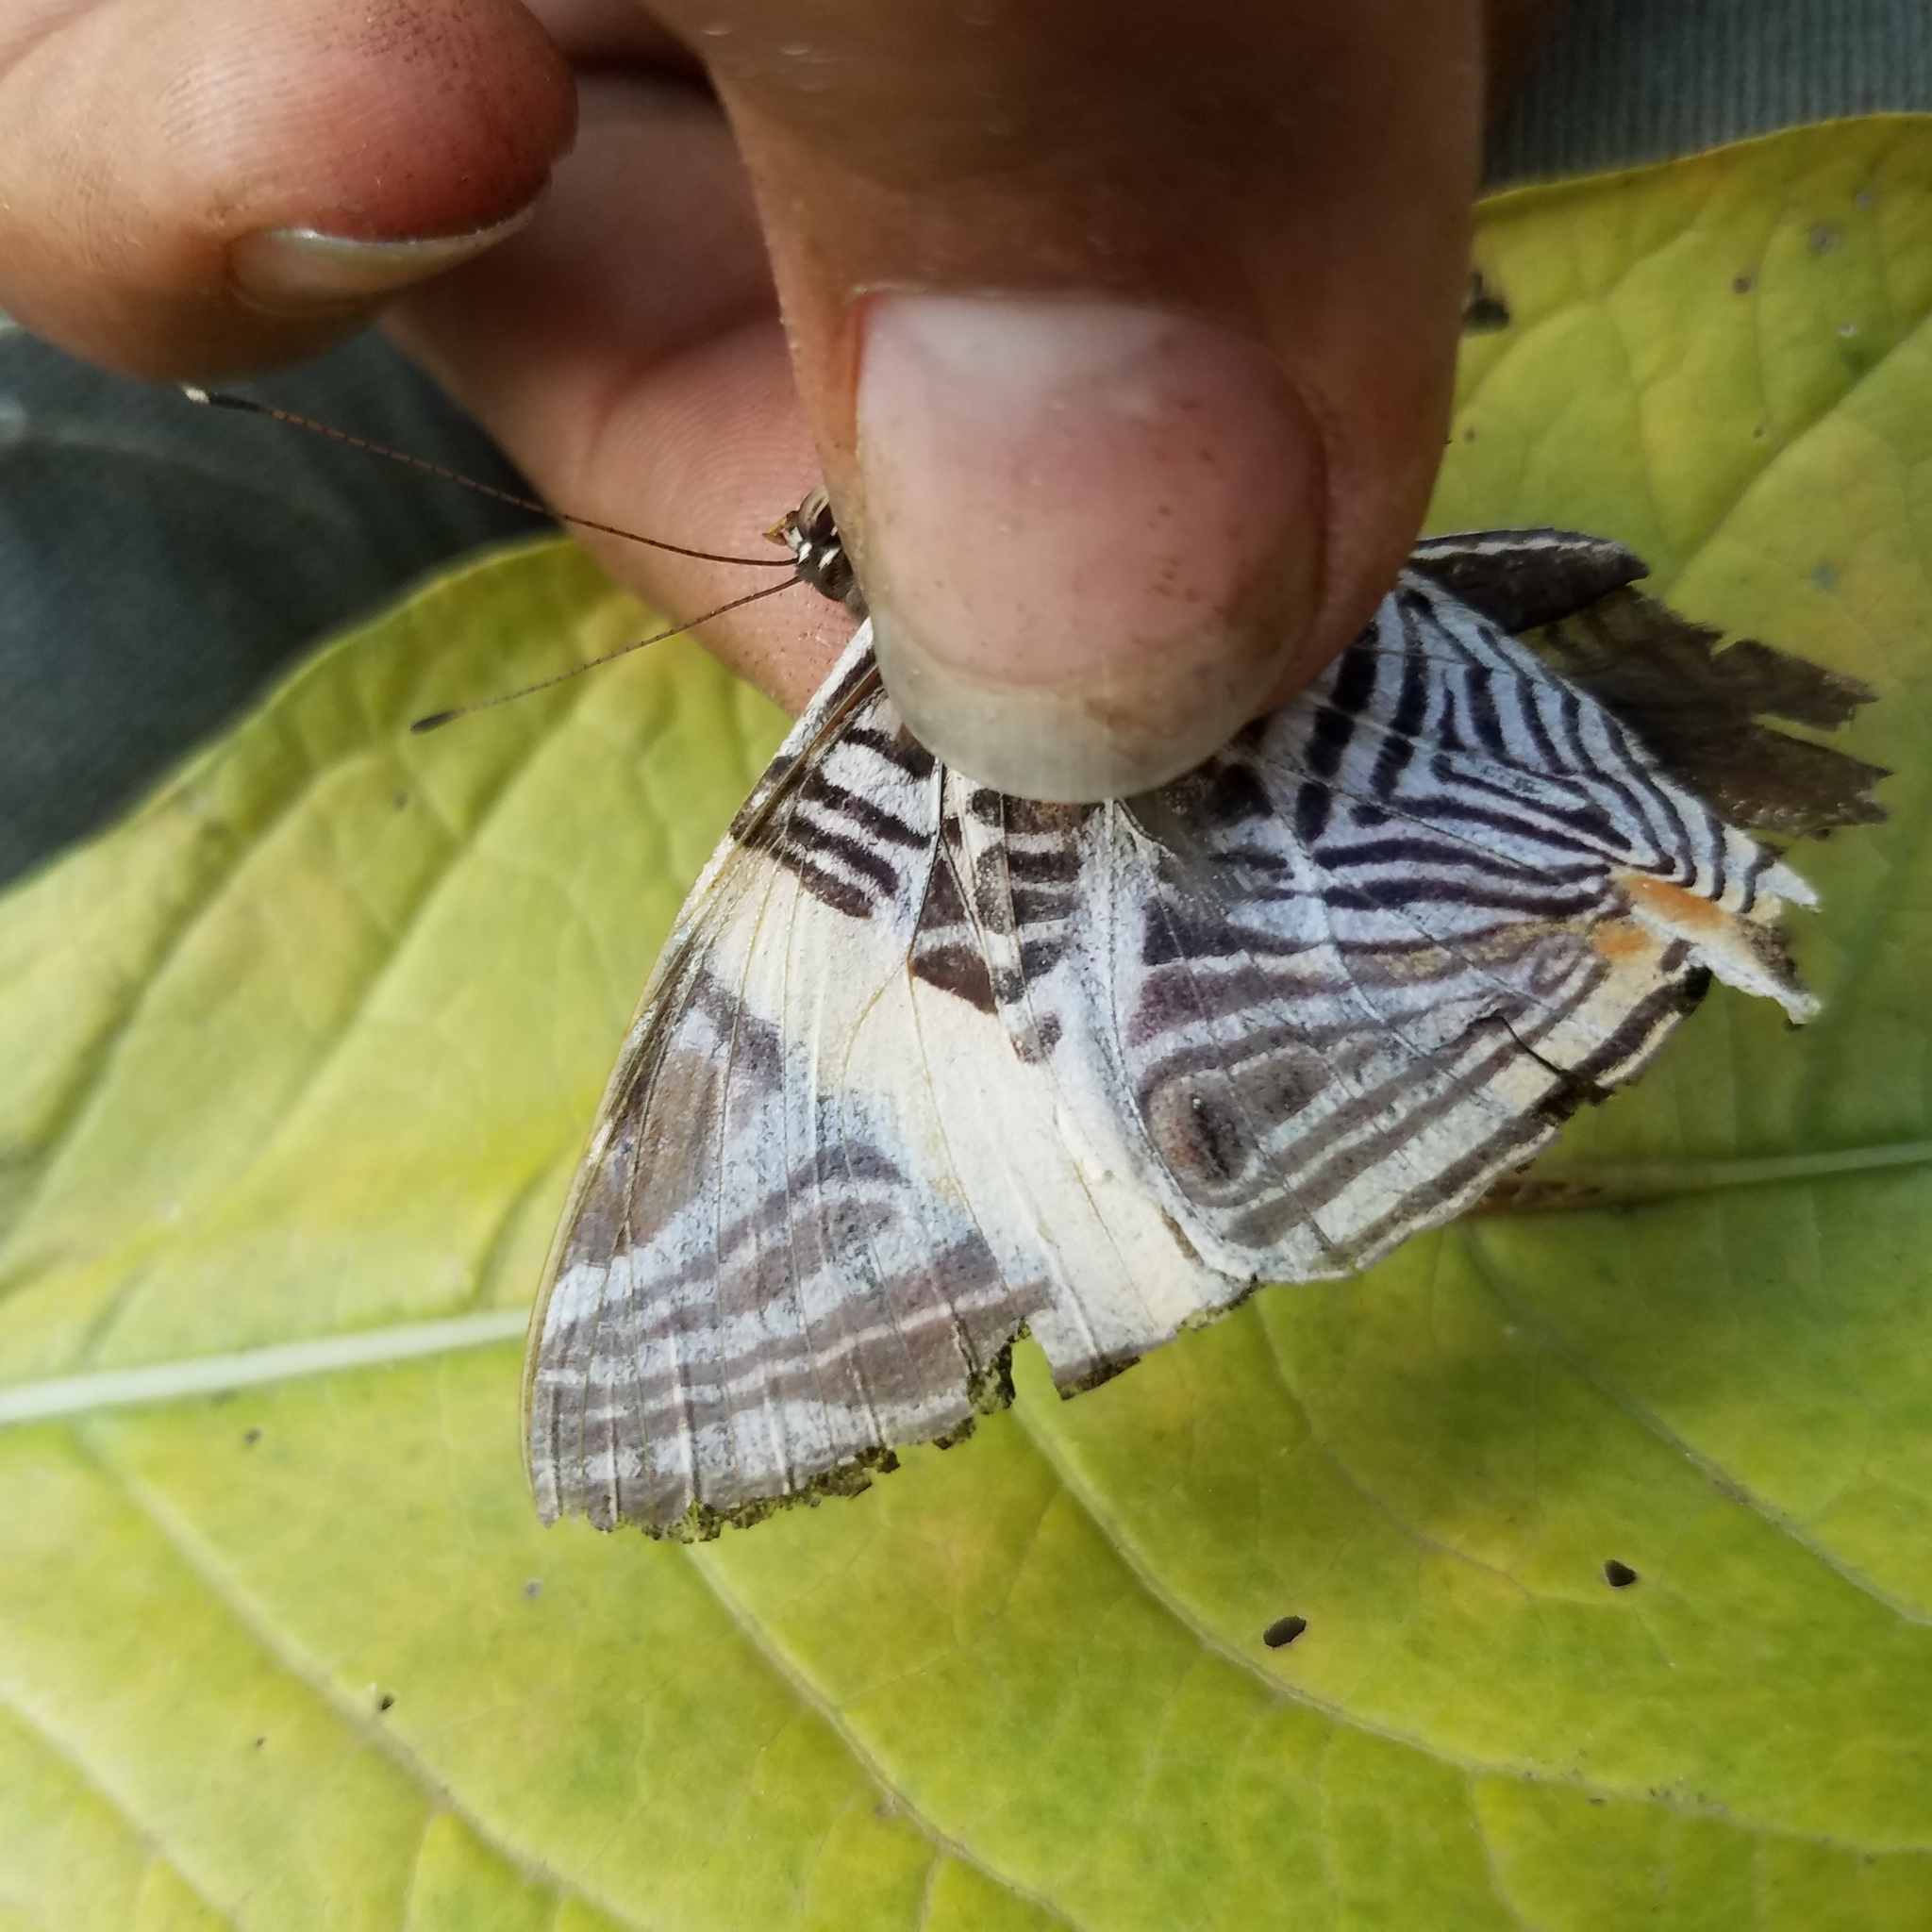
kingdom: Animalia
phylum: Arthropoda
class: Insecta
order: Lepidoptera
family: Nymphalidae
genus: Colobura
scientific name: Colobura dirce
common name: Dirce beauty
